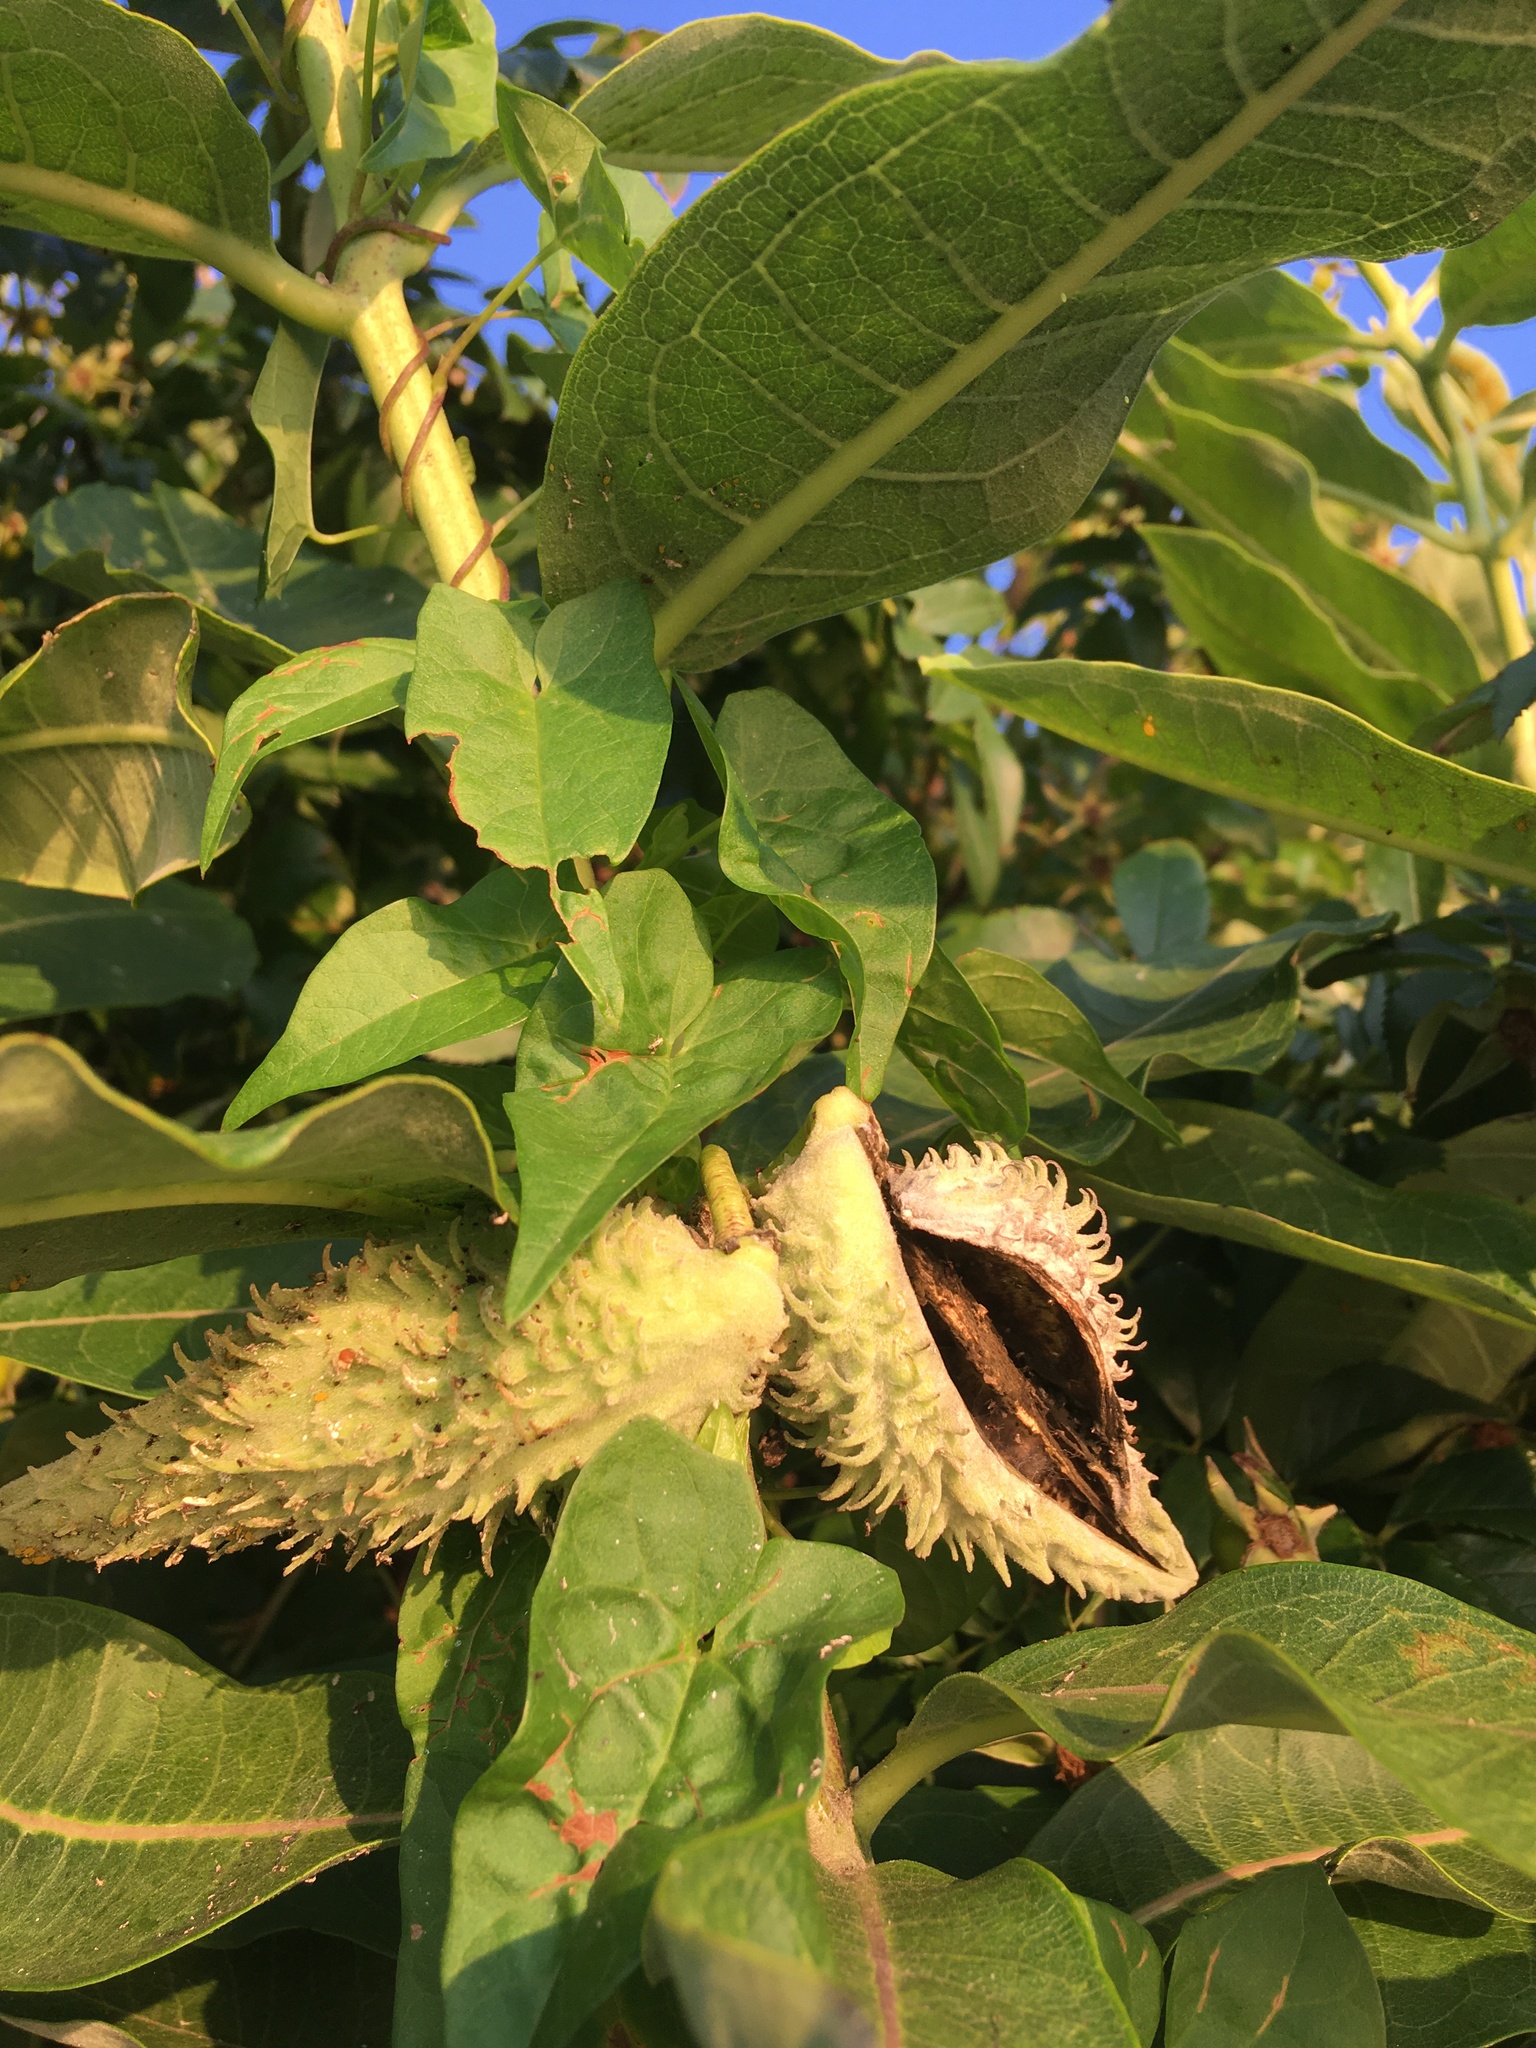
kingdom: Plantae
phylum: Tracheophyta
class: Magnoliopsida
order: Gentianales
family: Apocynaceae
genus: Asclepias
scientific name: Asclepias syriaca
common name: Common milkweed
